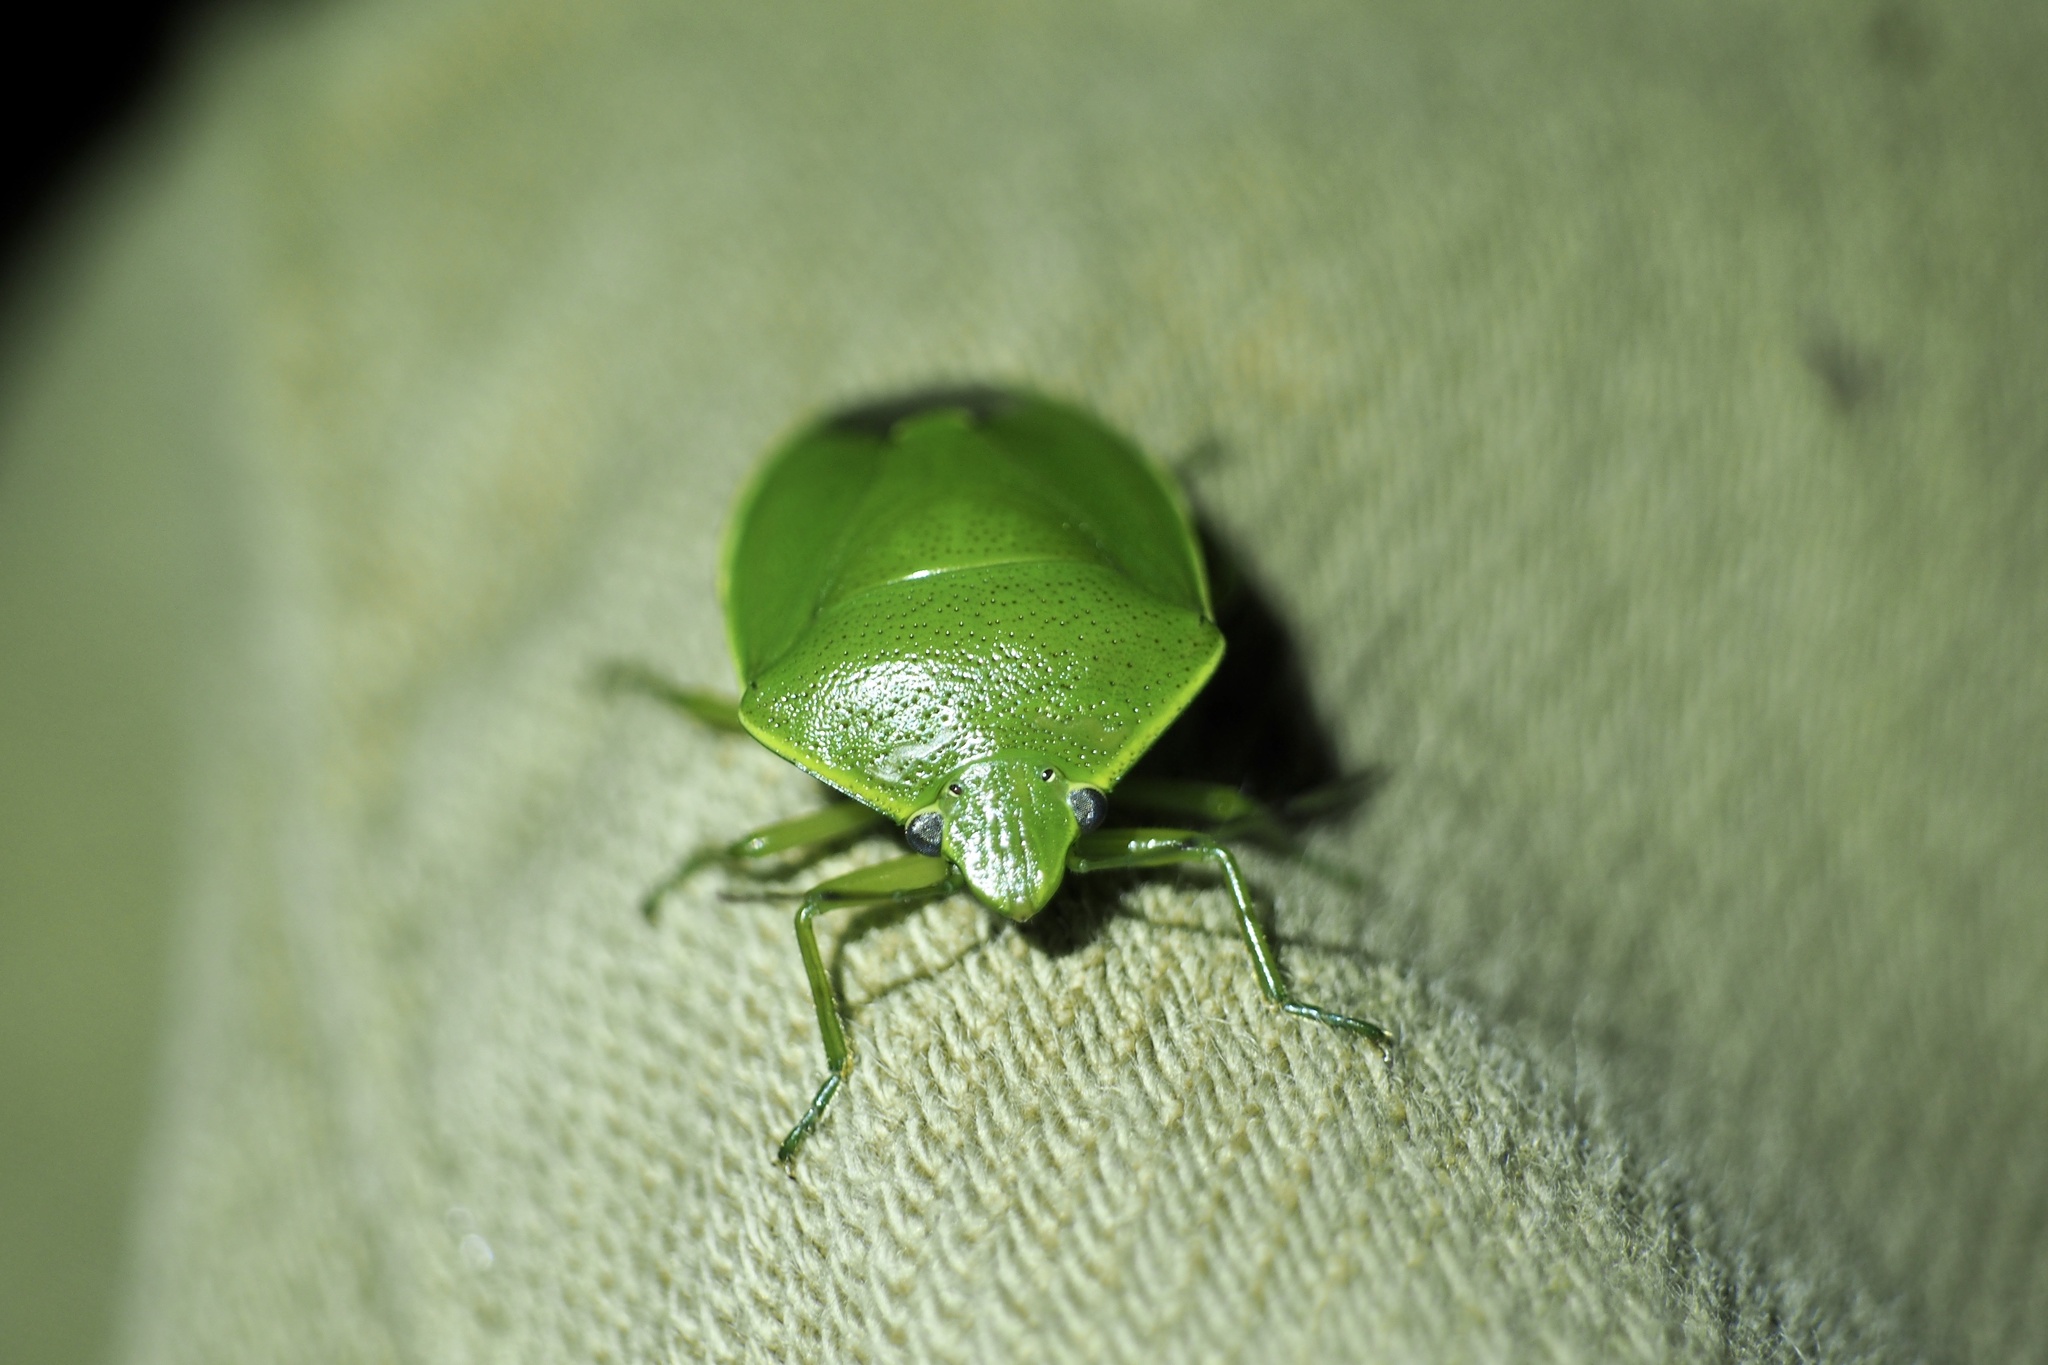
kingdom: Animalia
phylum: Arthropoda
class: Insecta
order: Hemiptera
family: Pentatomidae
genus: Glaucias
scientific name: Glaucias subpunctatus
